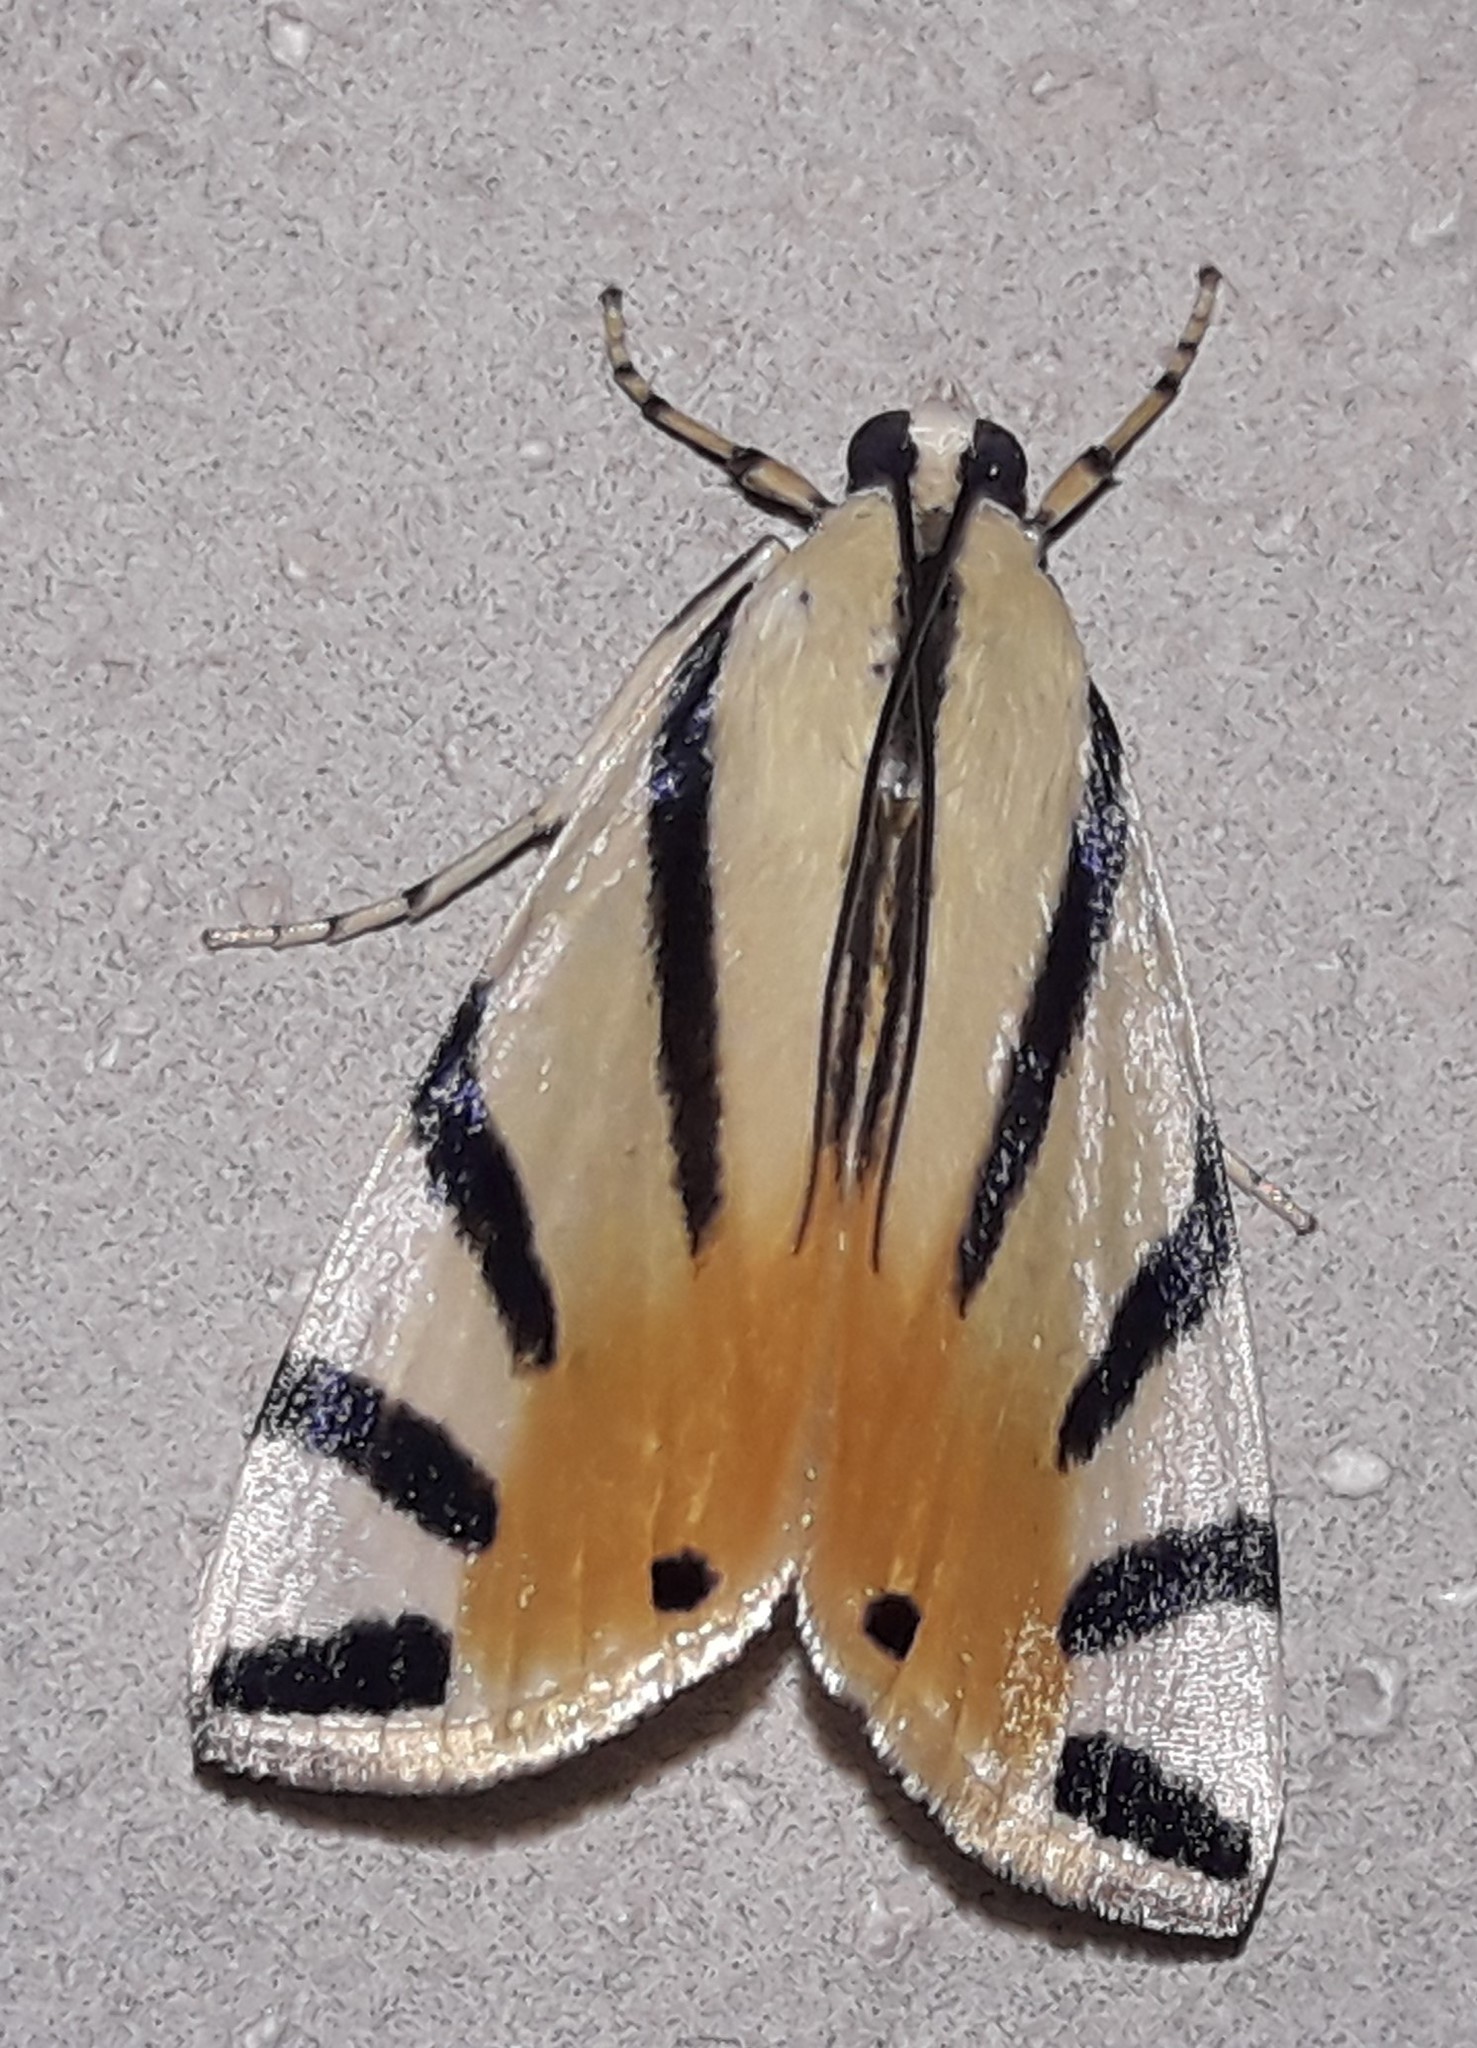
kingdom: Animalia
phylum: Arthropoda
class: Insecta
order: Lepidoptera
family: Crambidae
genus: Dichogama
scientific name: Dichogama prognealis
